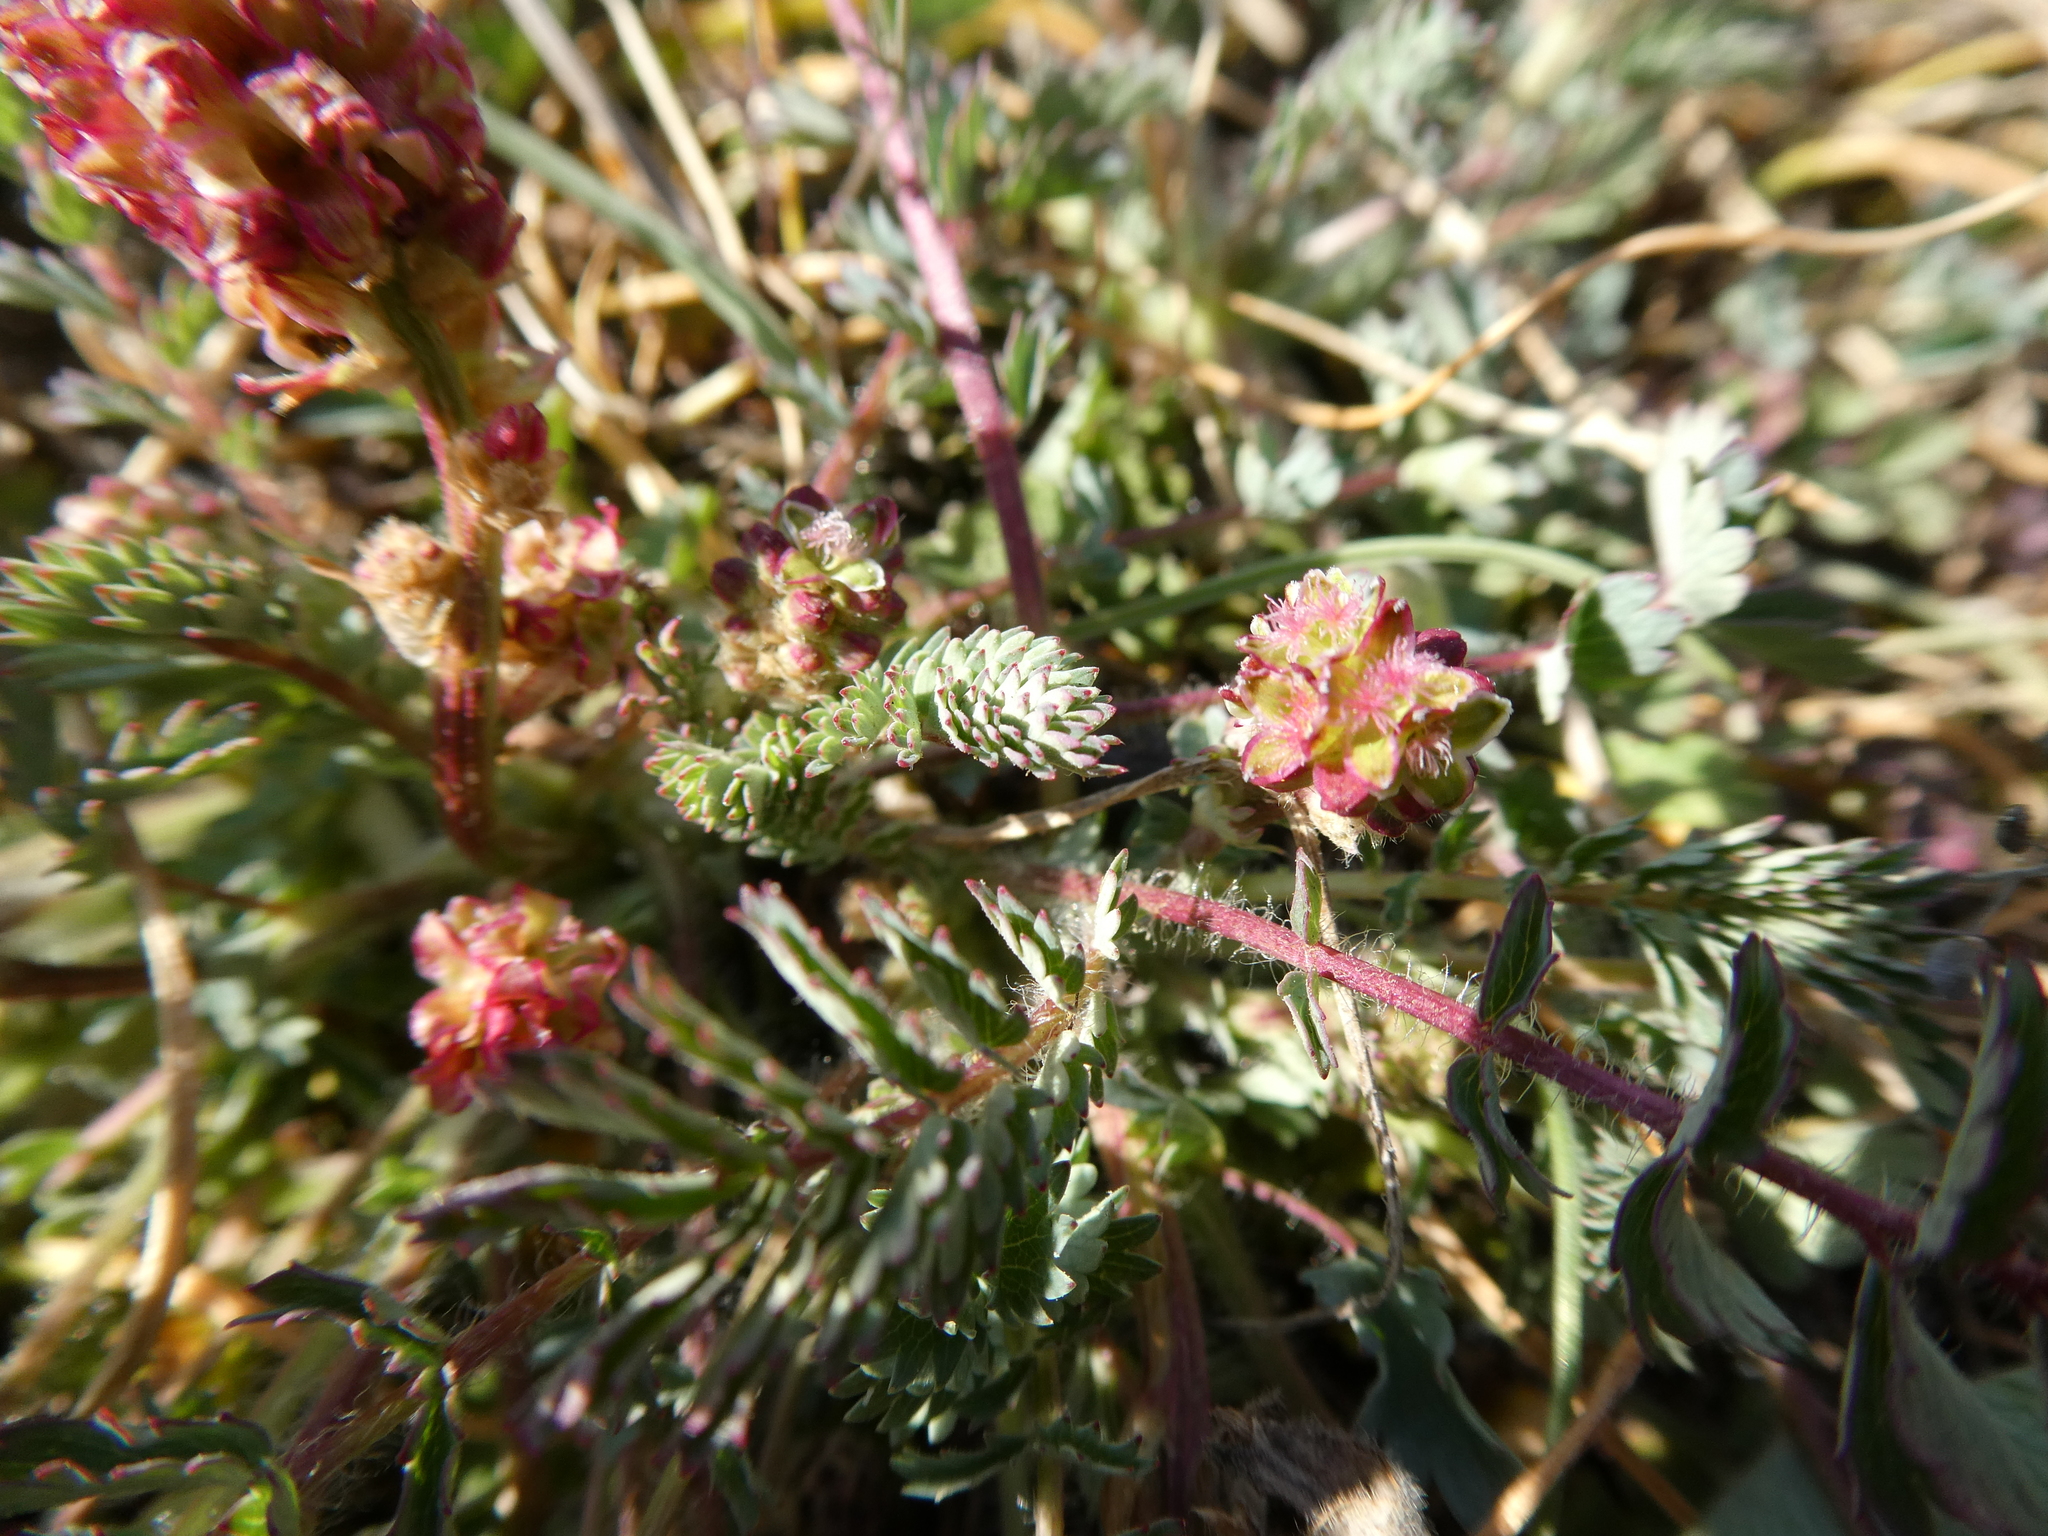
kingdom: Plantae
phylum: Tracheophyta
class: Magnoliopsida
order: Rosales
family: Rosaceae
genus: Poterium
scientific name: Poterium sanguisorba
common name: Salad burnet
